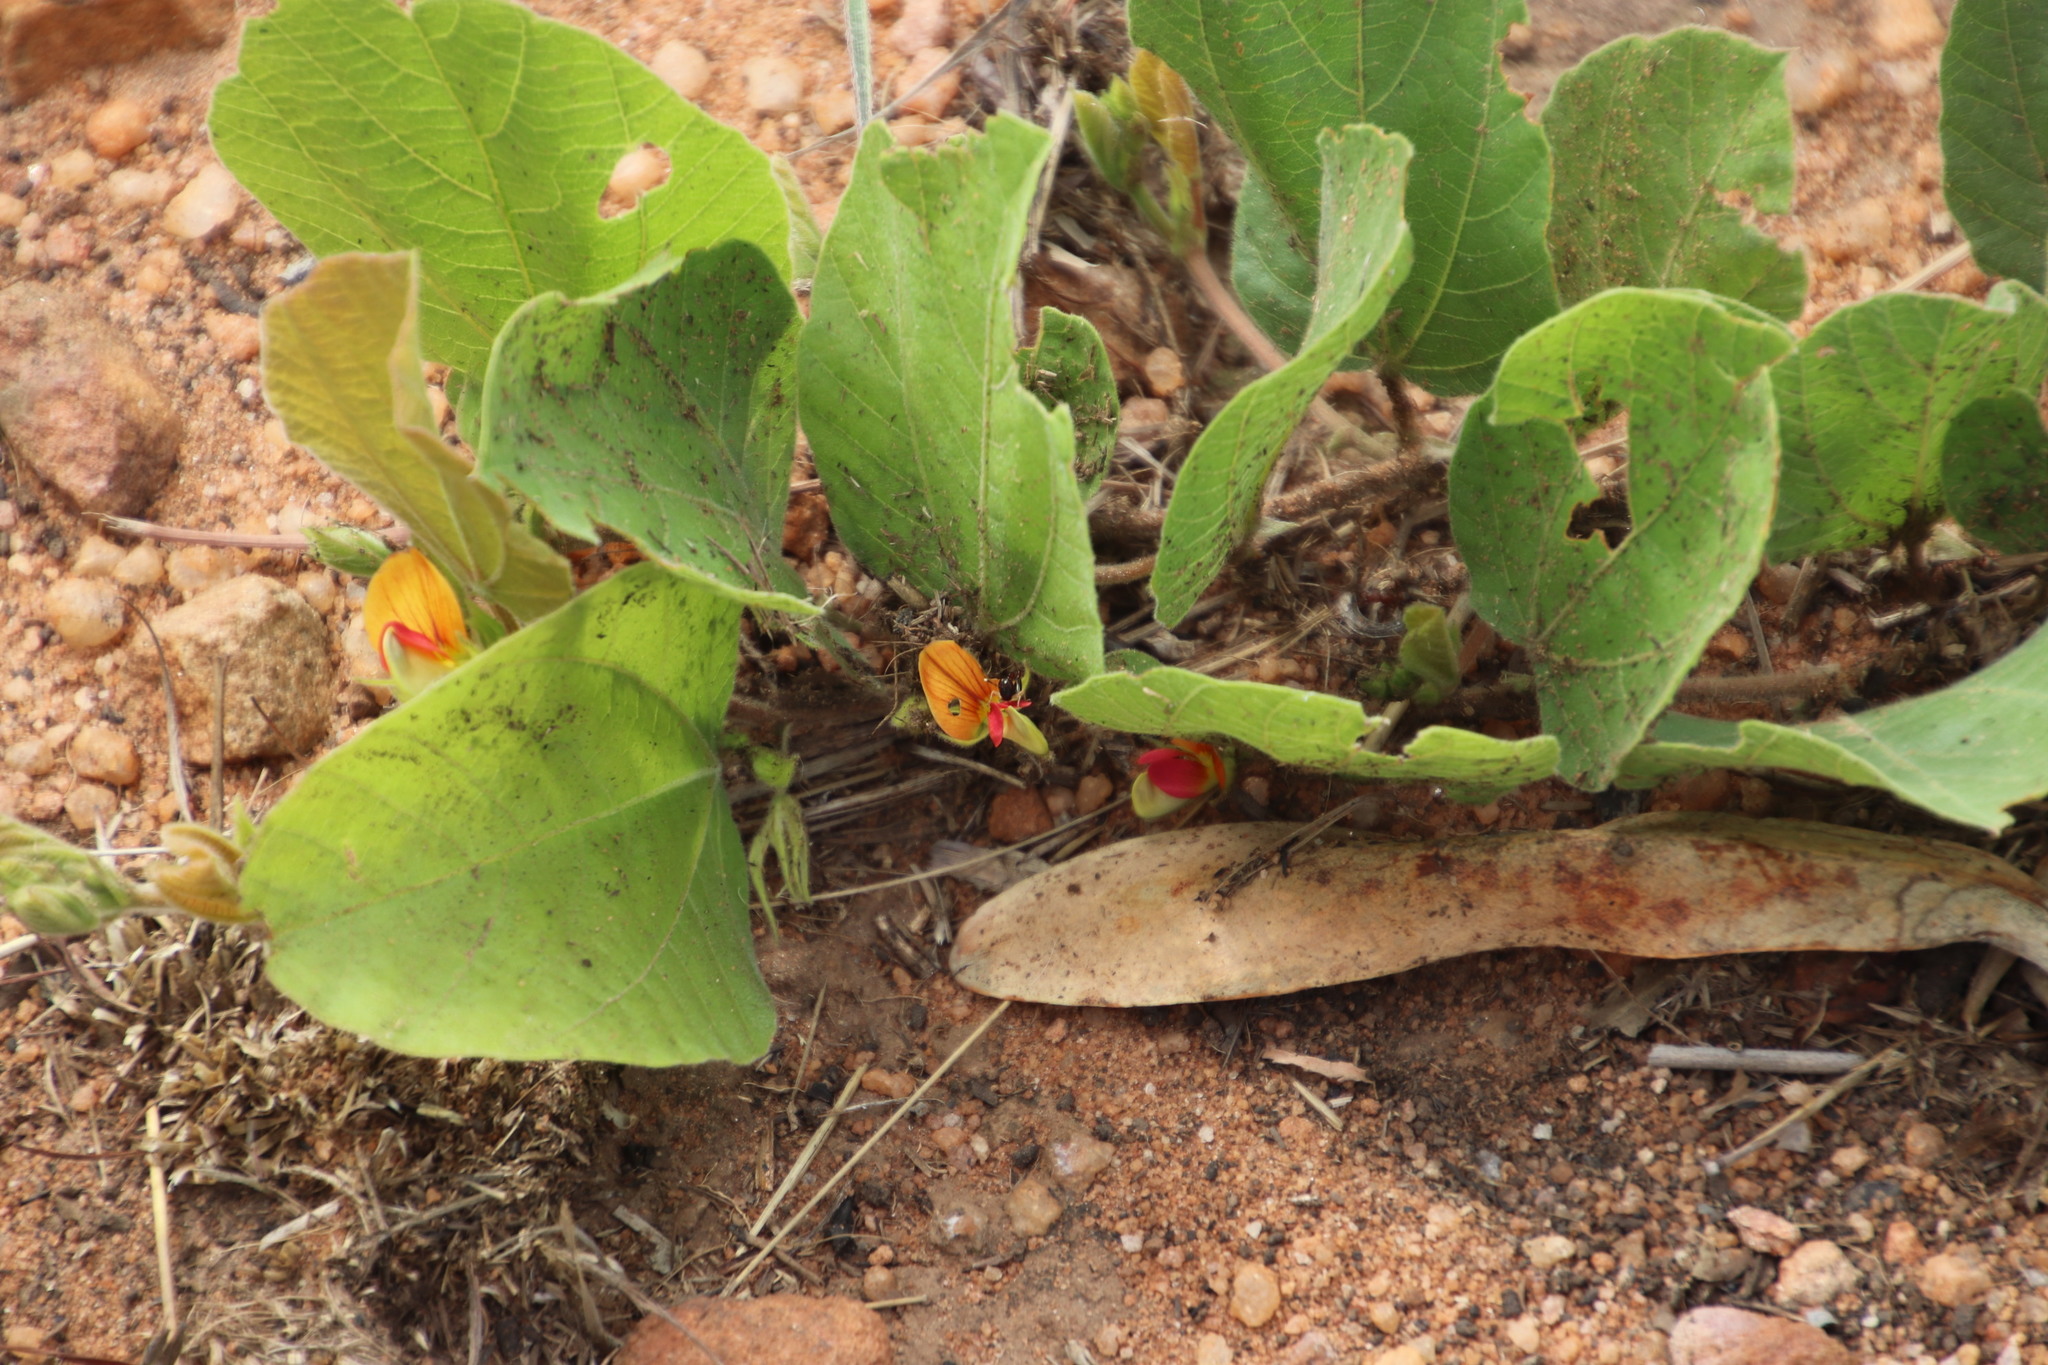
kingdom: Plantae
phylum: Tracheophyta
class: Magnoliopsida
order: Fabales
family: Fabaceae
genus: Rhynchosia
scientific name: Rhynchosia monophylla
